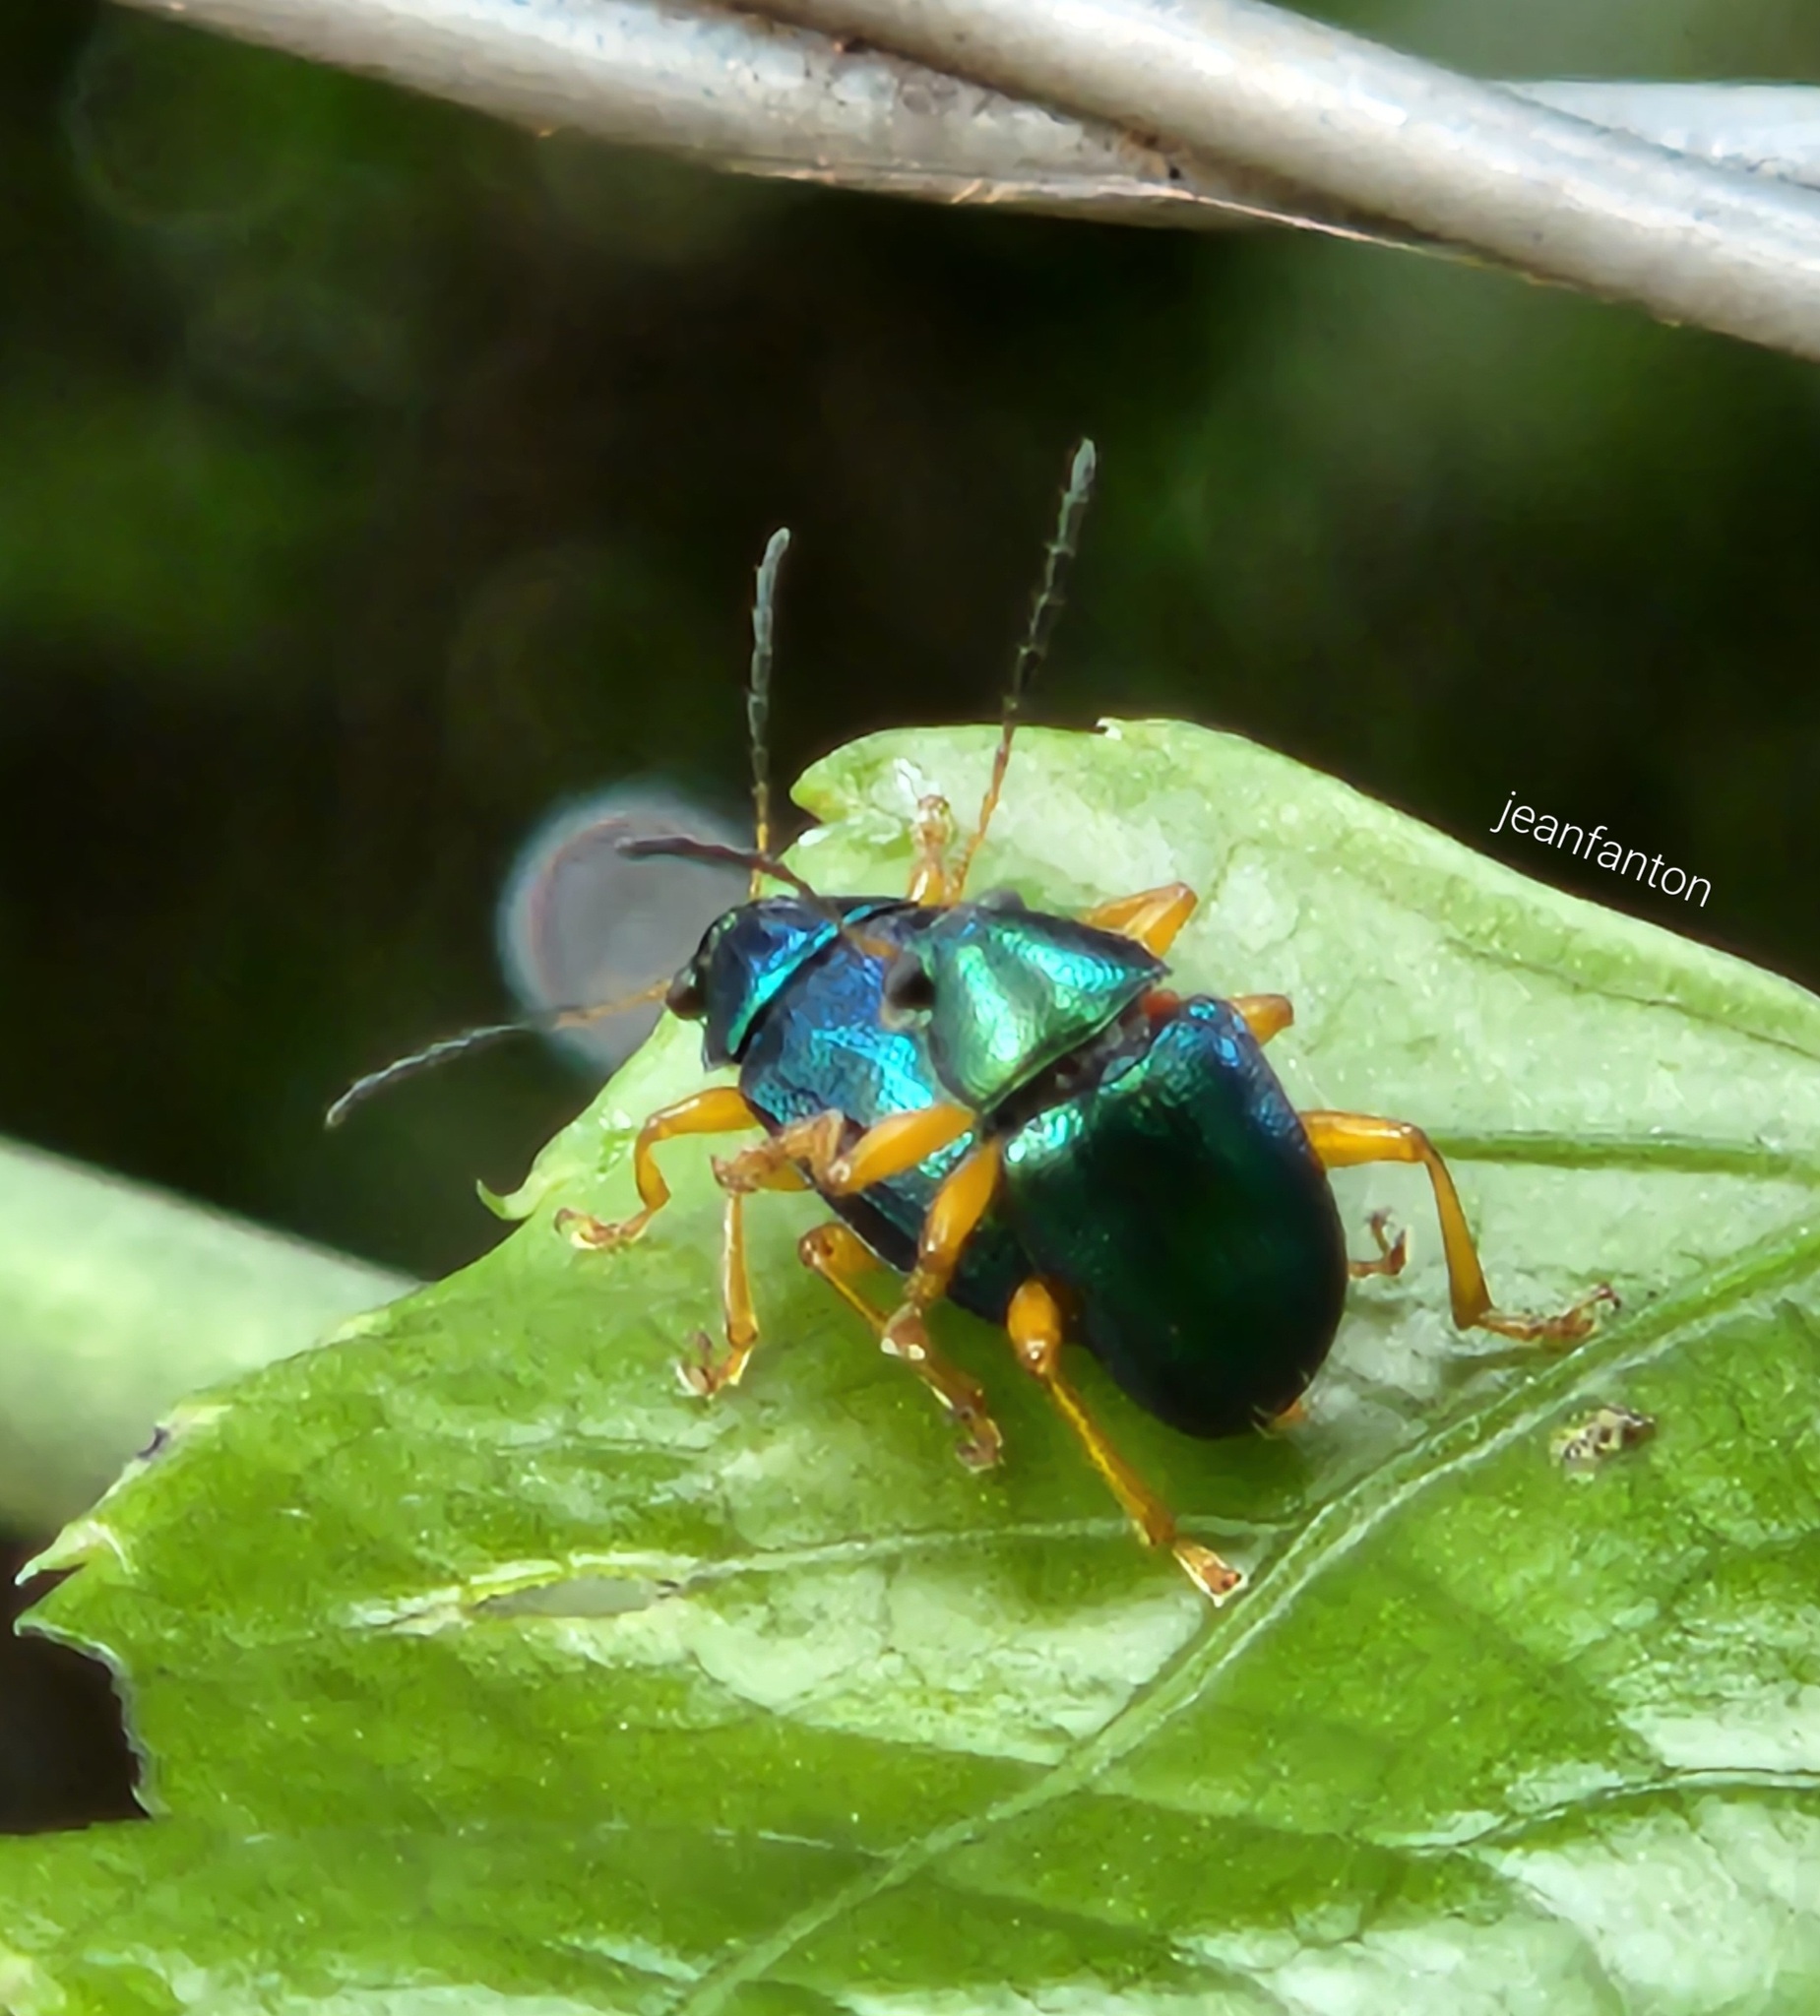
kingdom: Animalia
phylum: Arthropoda
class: Insecta
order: Coleoptera
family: Chrysomelidae
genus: Nodocolaspis
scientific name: Nodocolaspis
